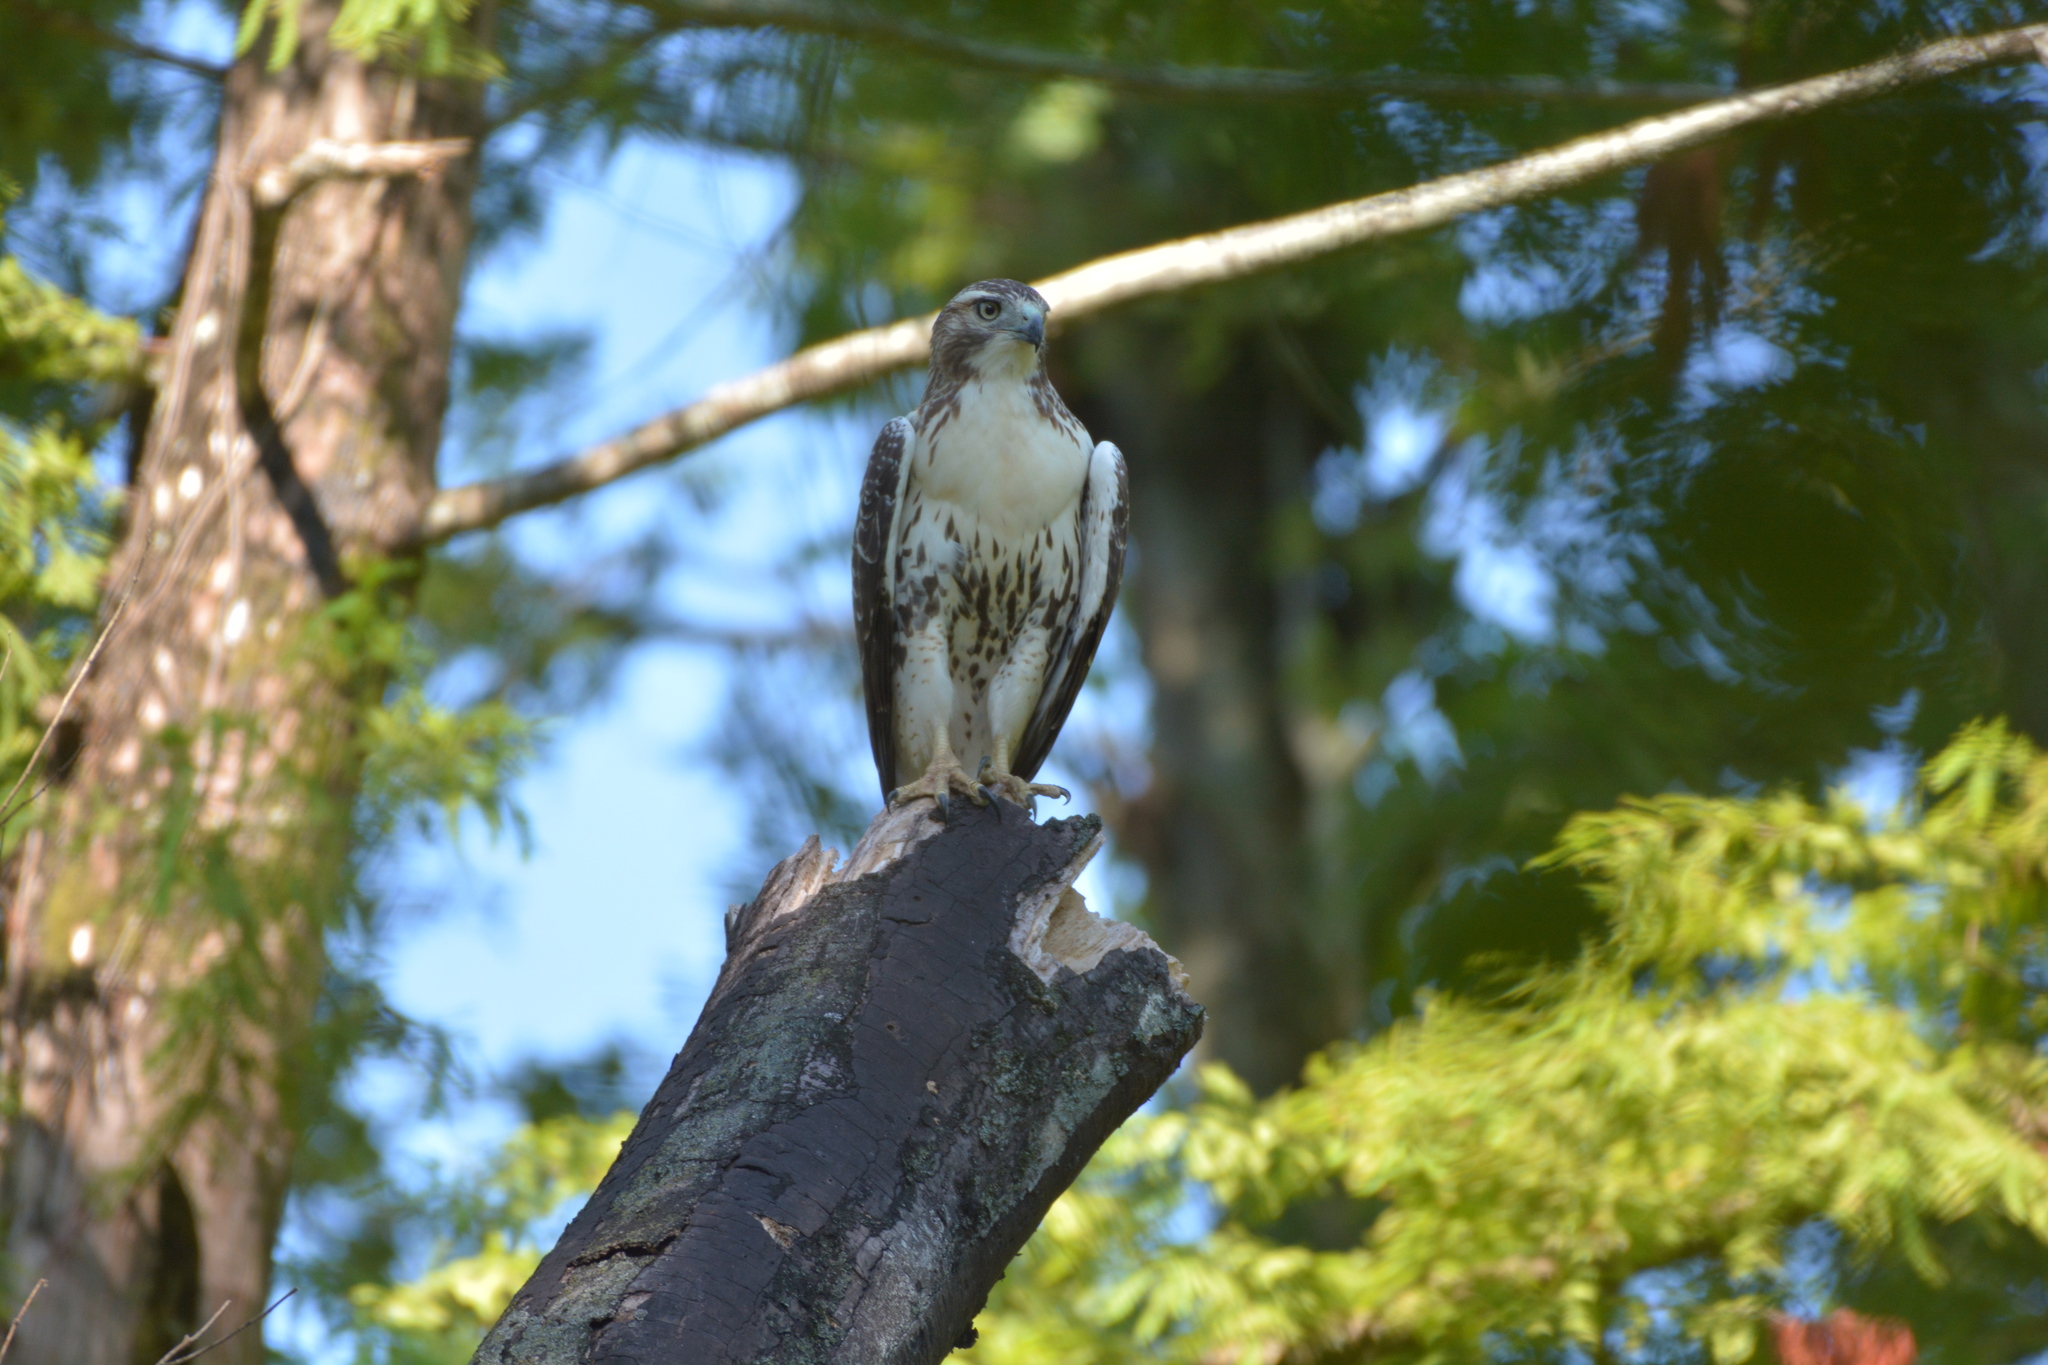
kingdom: Animalia
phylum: Chordata
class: Aves
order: Accipitriformes
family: Accipitridae
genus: Buteo
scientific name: Buteo jamaicensis
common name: Red-tailed hawk
